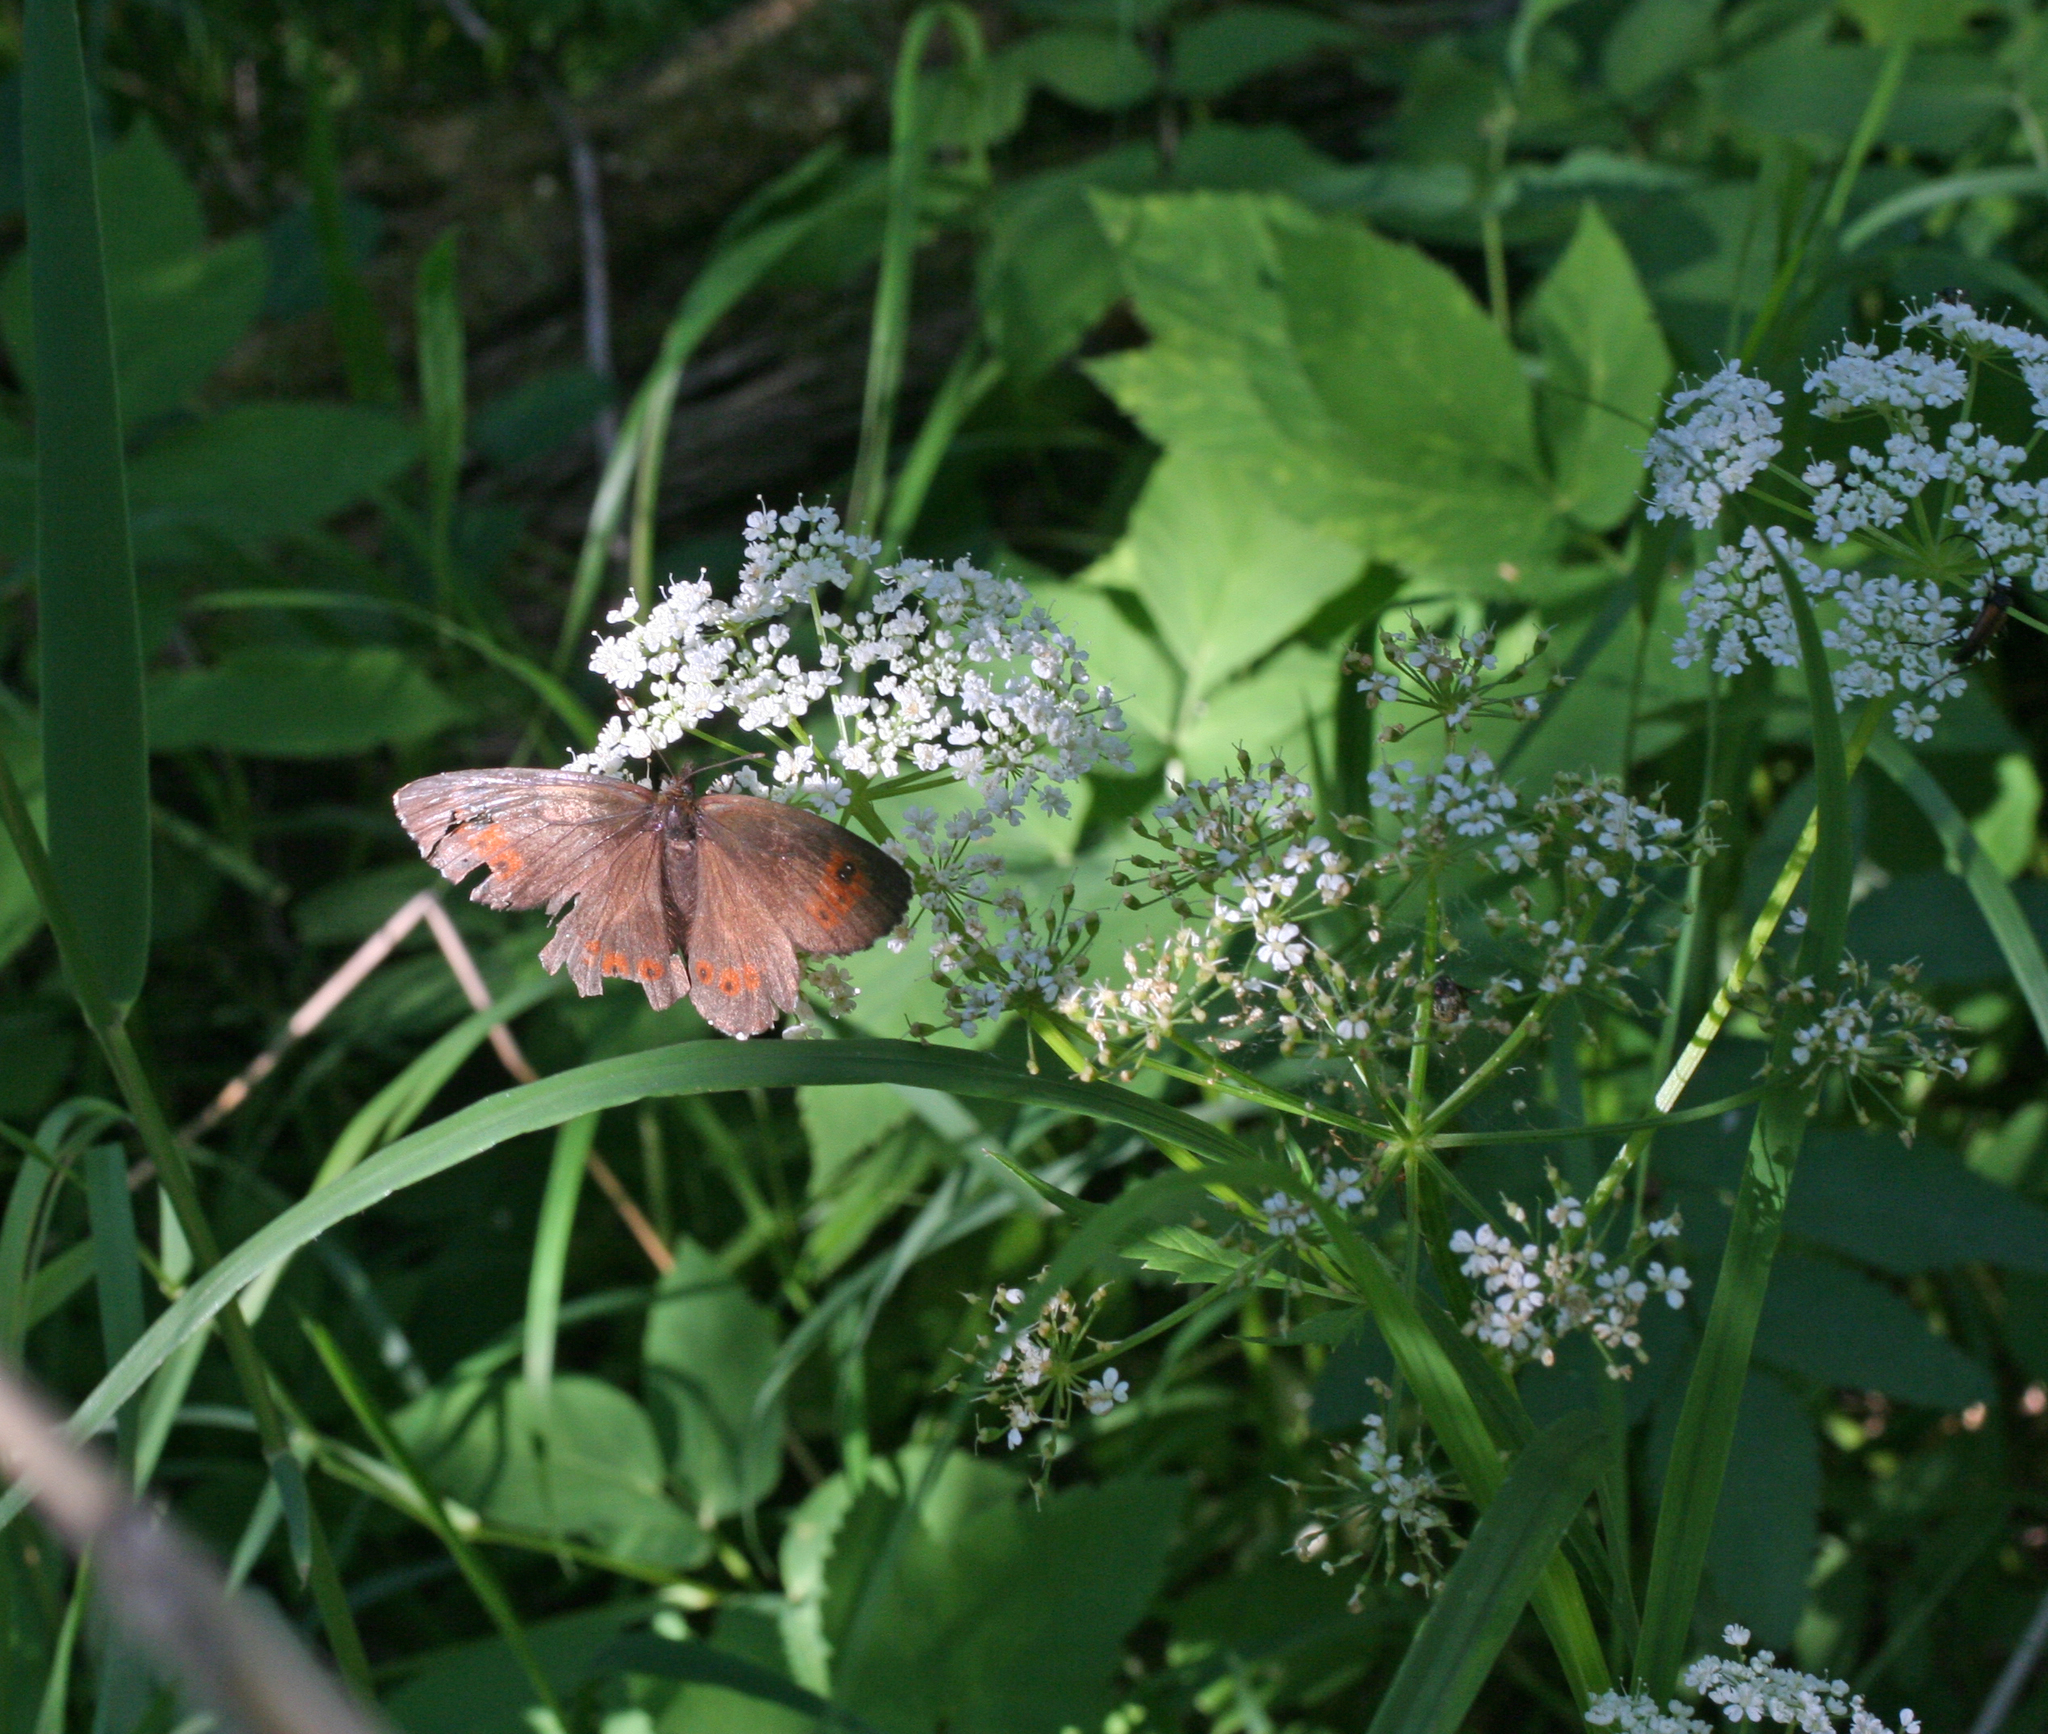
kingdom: Plantae
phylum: Tracheophyta
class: Magnoliopsida
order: Apiales
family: Apiaceae
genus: Aegopodium
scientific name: Aegopodium podagraria
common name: Ground-elder
